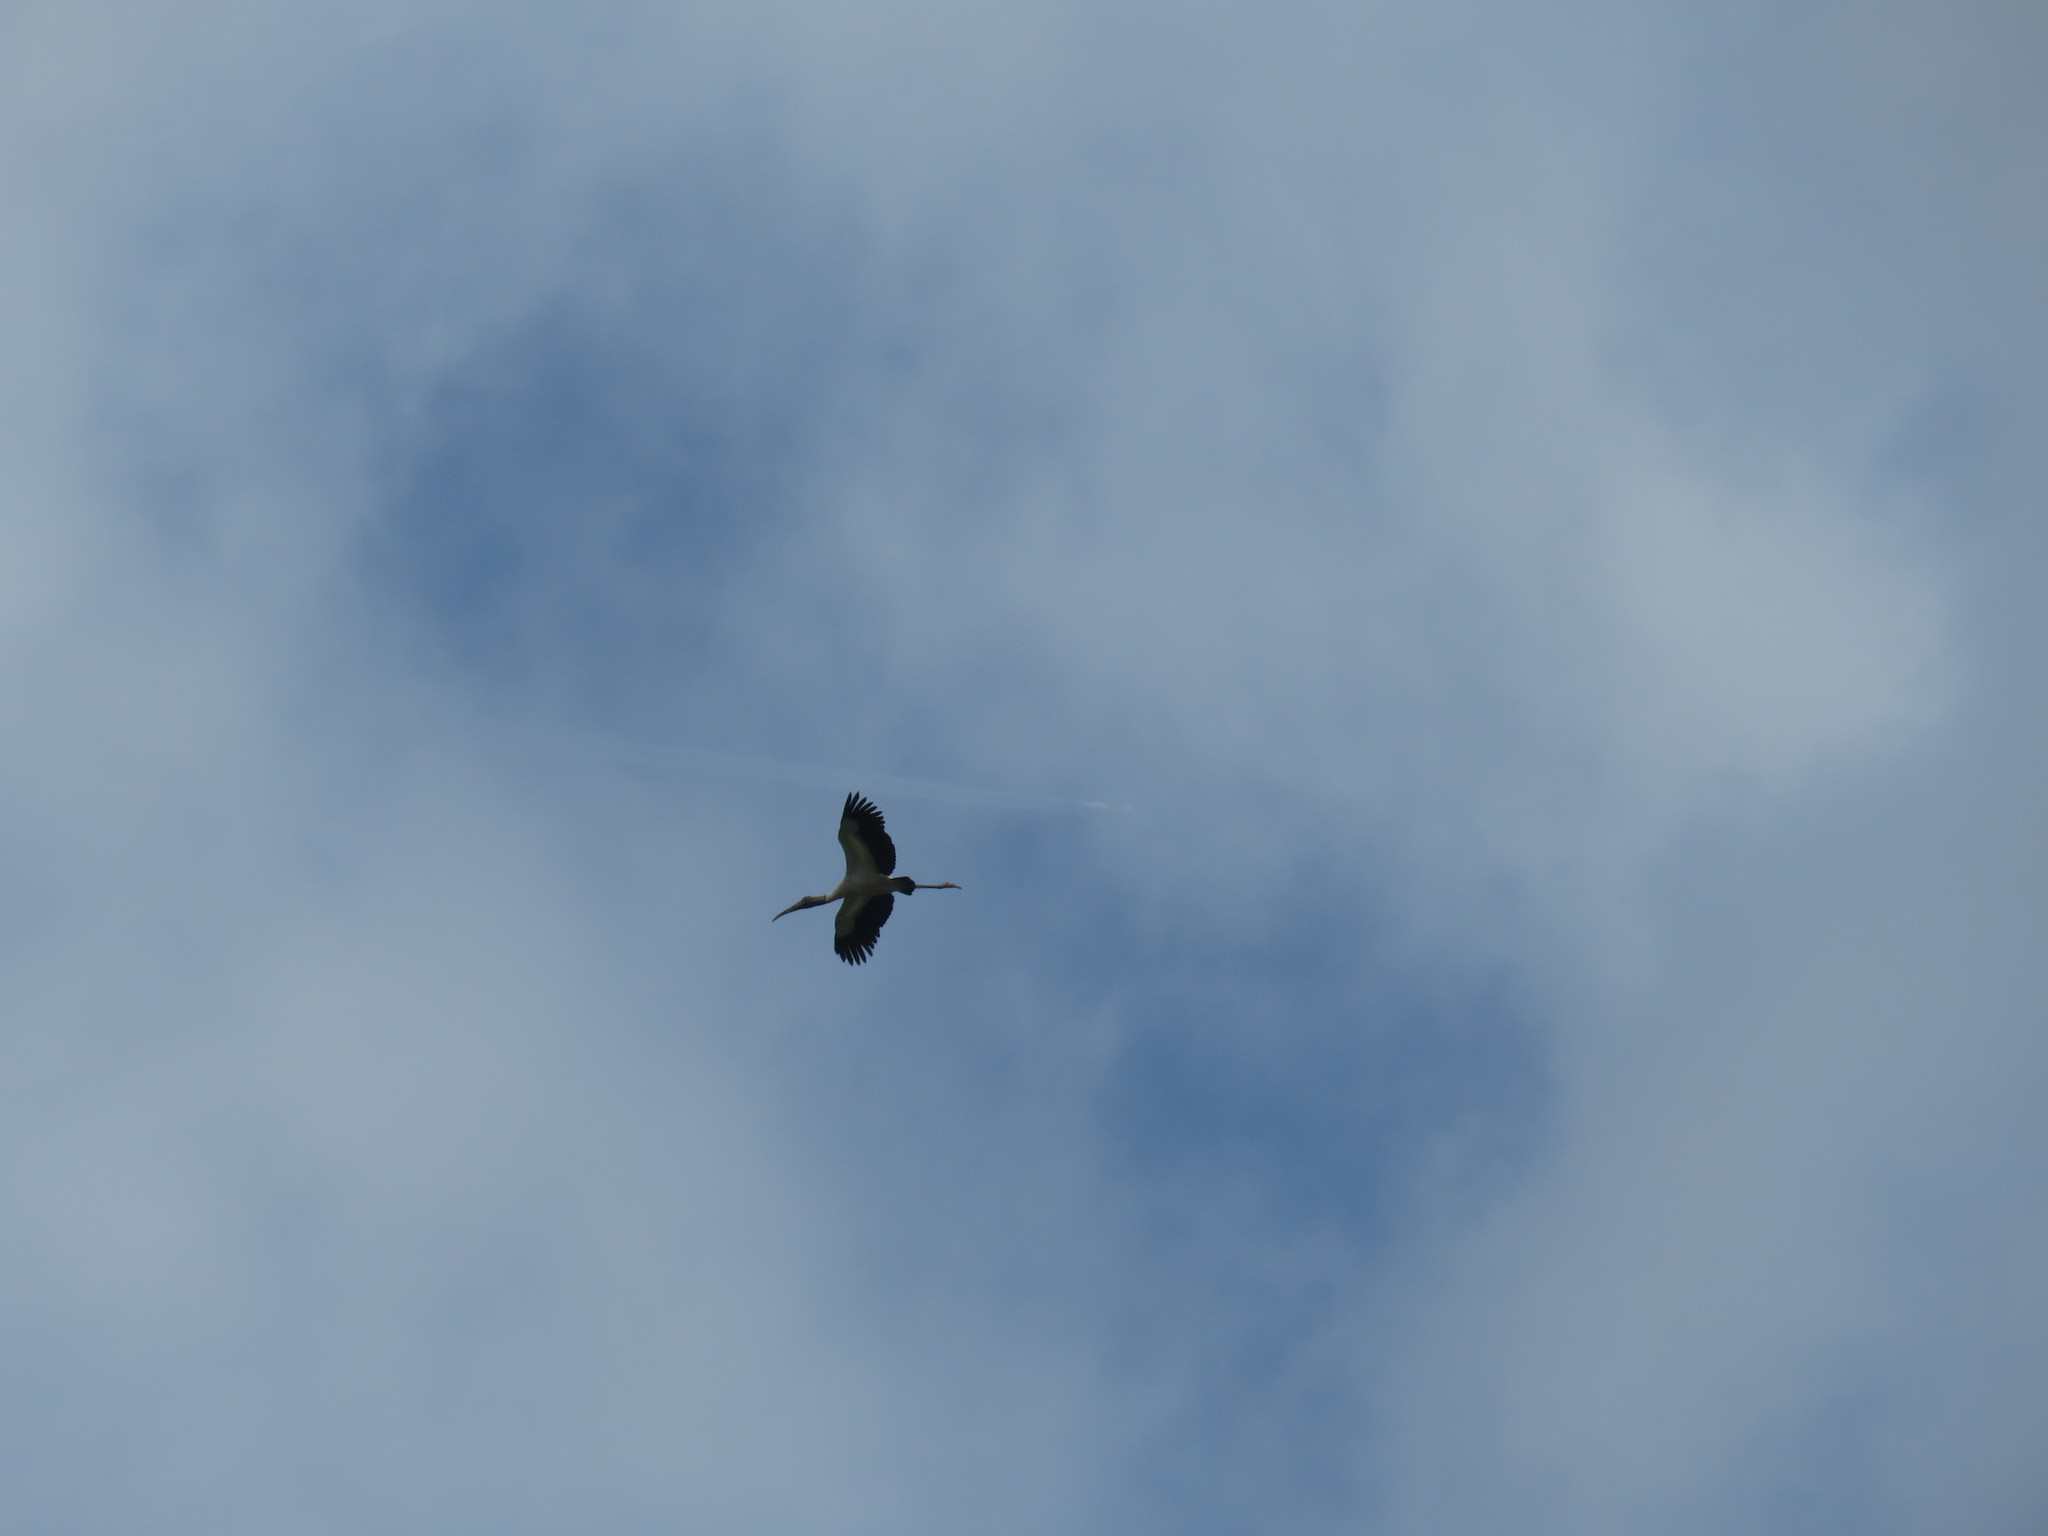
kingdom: Animalia
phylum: Chordata
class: Aves
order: Ciconiiformes
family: Ciconiidae
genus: Mycteria
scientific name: Mycteria americana
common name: Wood stork
